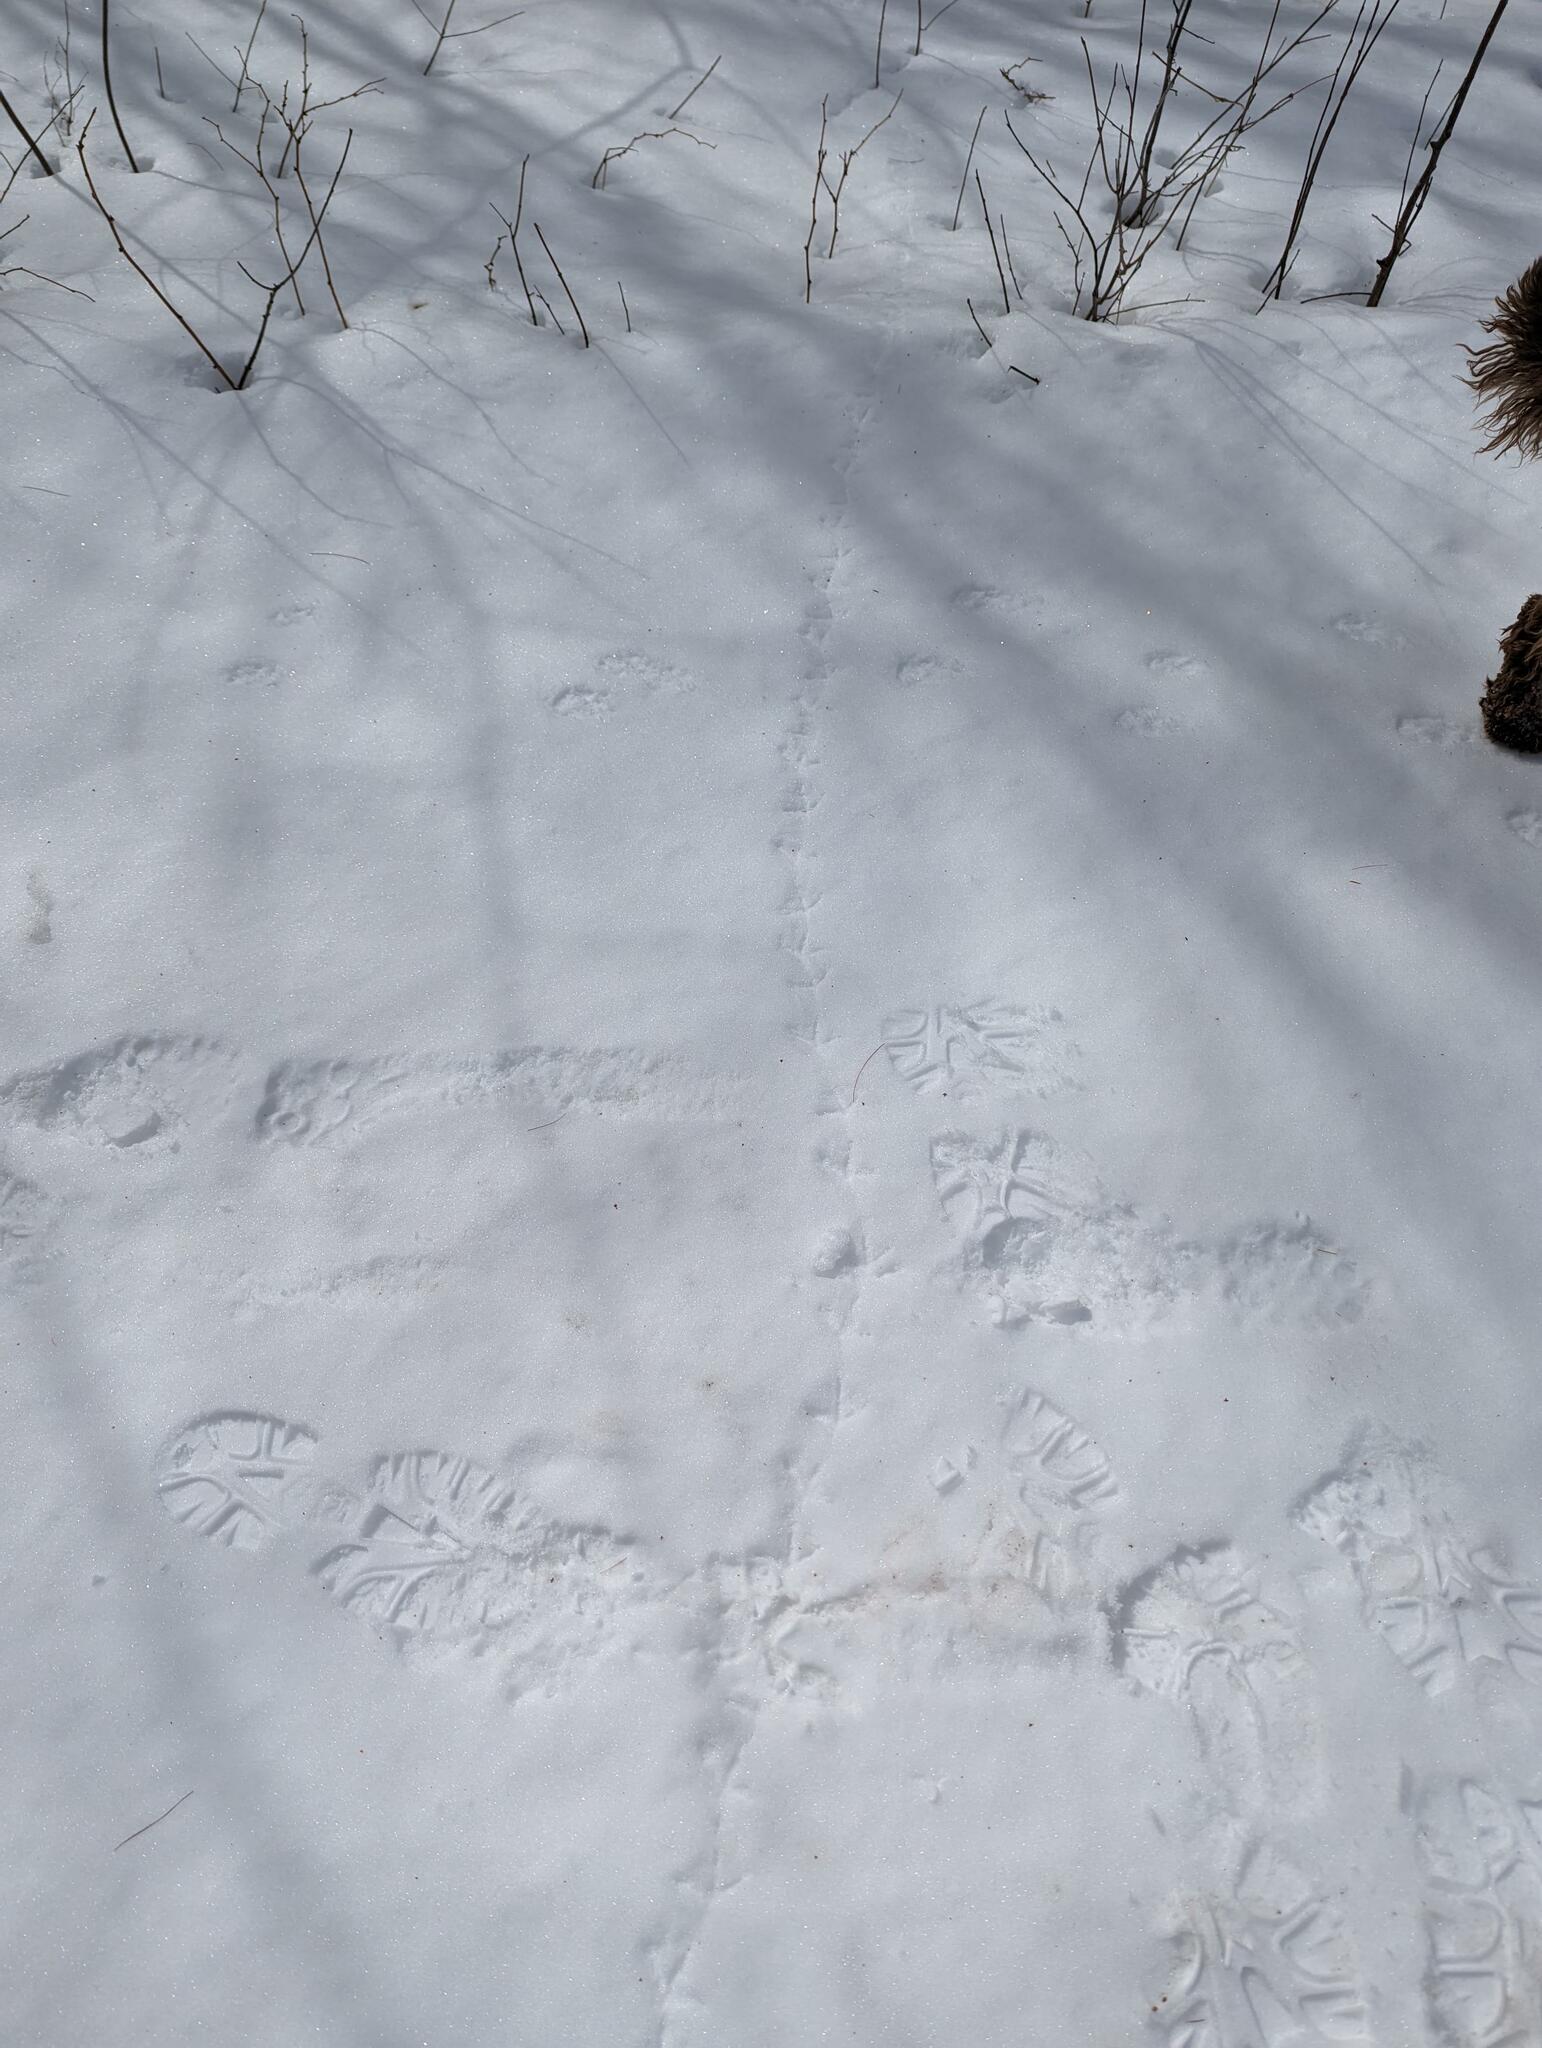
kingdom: Animalia
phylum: Chordata
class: Aves
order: Galliformes
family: Phasianidae
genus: Bonasa
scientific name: Bonasa umbellus
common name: Ruffed grouse
